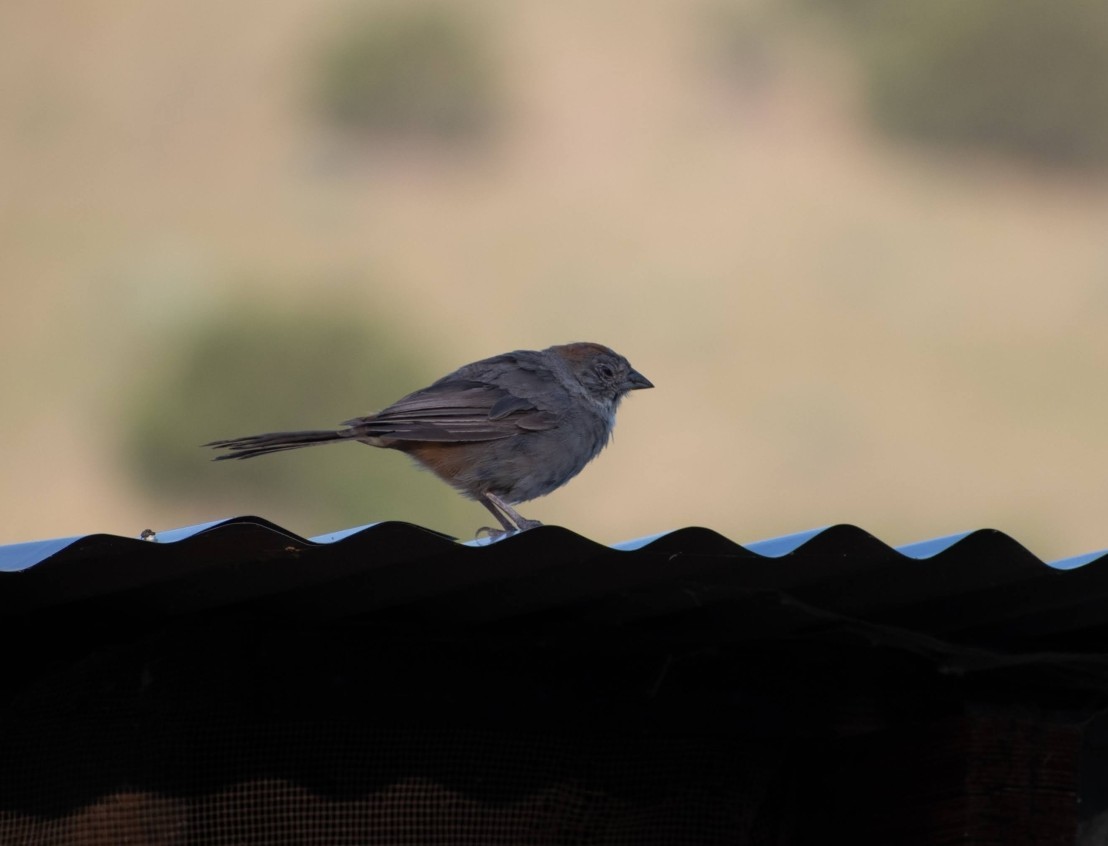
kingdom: Animalia
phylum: Chordata
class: Aves
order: Passeriformes
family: Passerellidae
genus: Melozone
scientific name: Melozone fusca
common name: Canyon towhee
